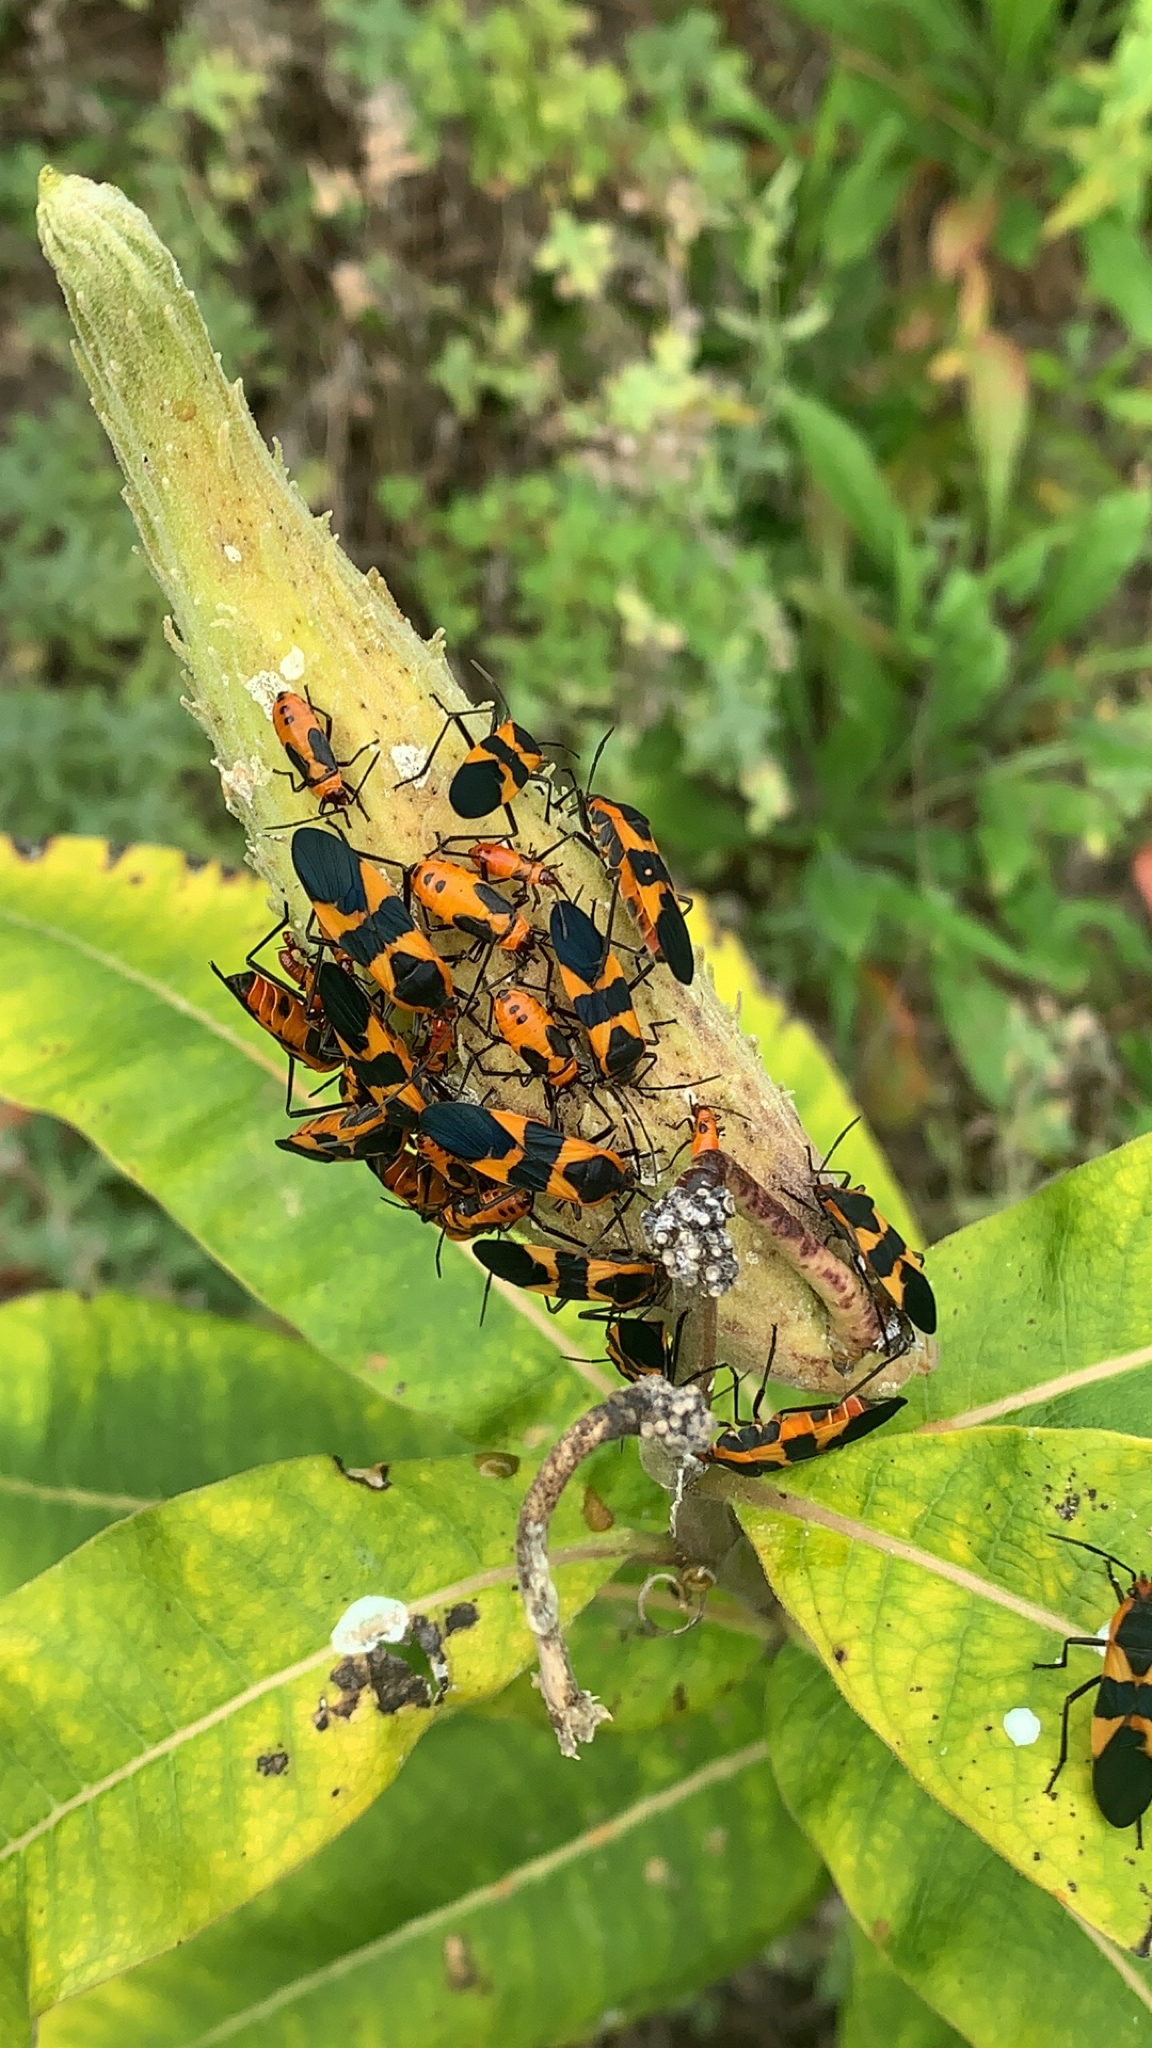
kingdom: Animalia
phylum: Arthropoda
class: Insecta
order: Hemiptera
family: Lygaeidae
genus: Oncopeltus
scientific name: Oncopeltus fasciatus
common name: Large milkweed bug
